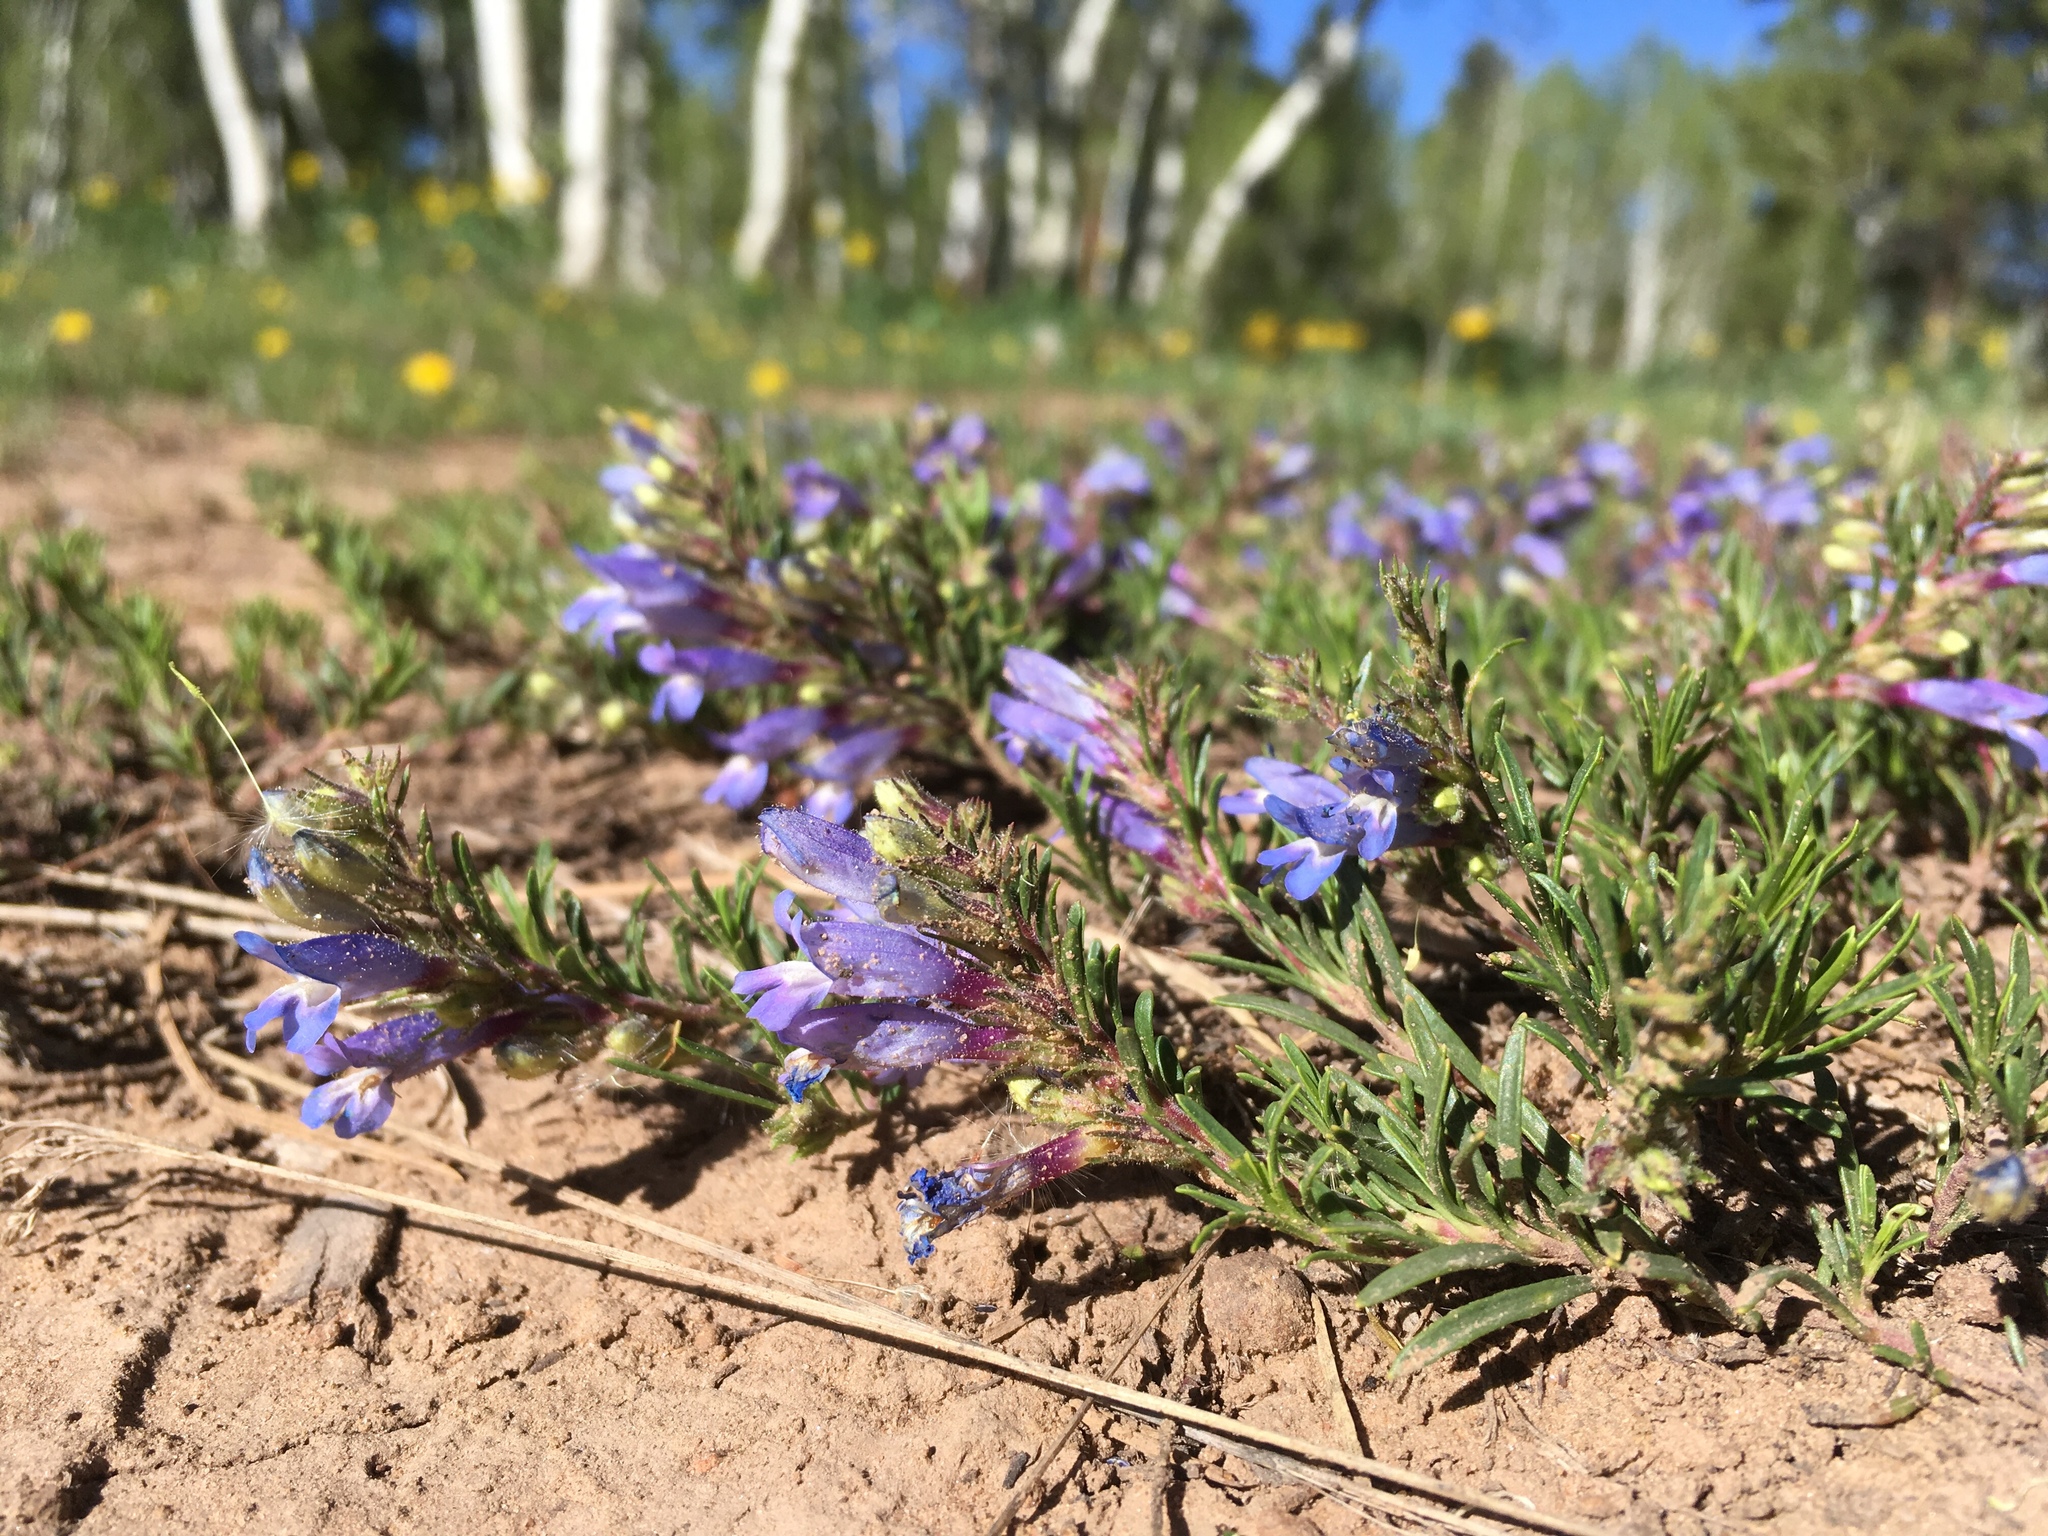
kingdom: Plantae
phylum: Tracheophyta
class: Magnoliopsida
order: Lamiales
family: Plantaginaceae
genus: Penstemon
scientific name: Penstemon crandallii
